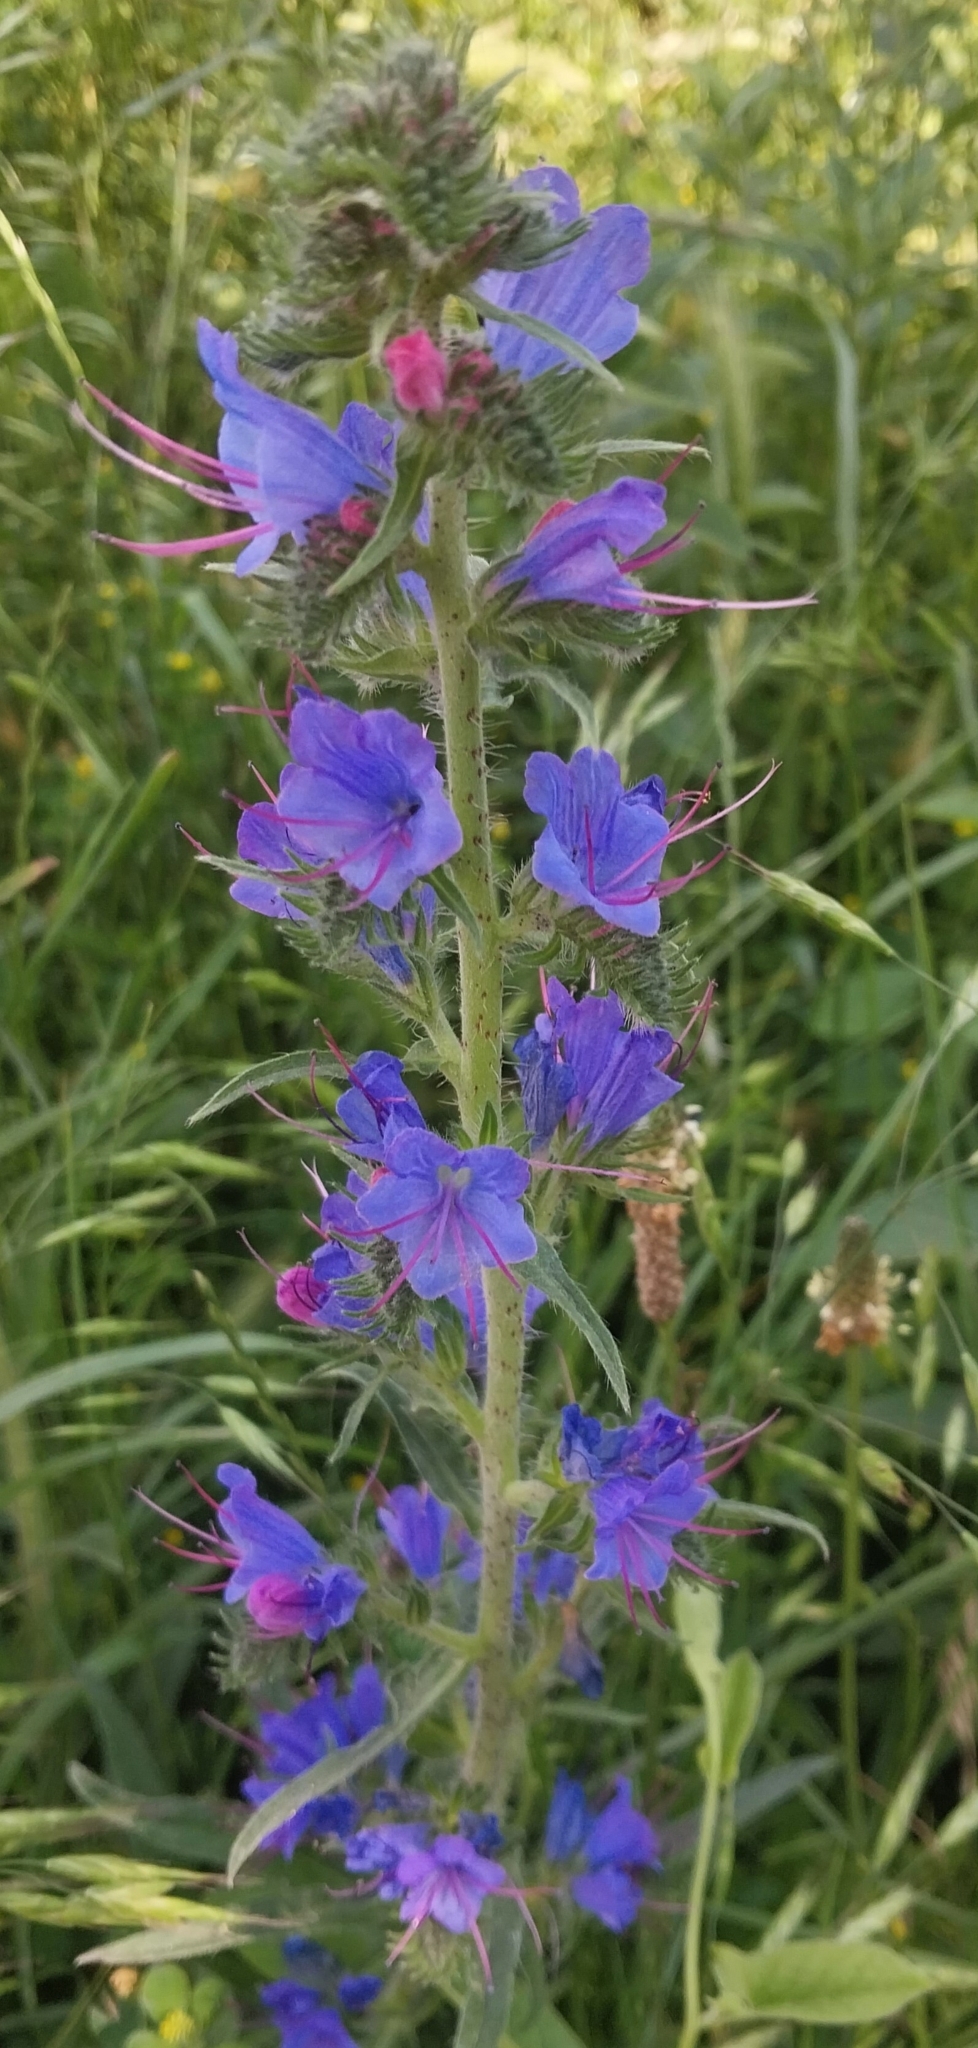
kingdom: Plantae
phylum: Tracheophyta
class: Magnoliopsida
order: Boraginales
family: Boraginaceae
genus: Echium
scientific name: Echium vulgare
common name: Common viper's bugloss
